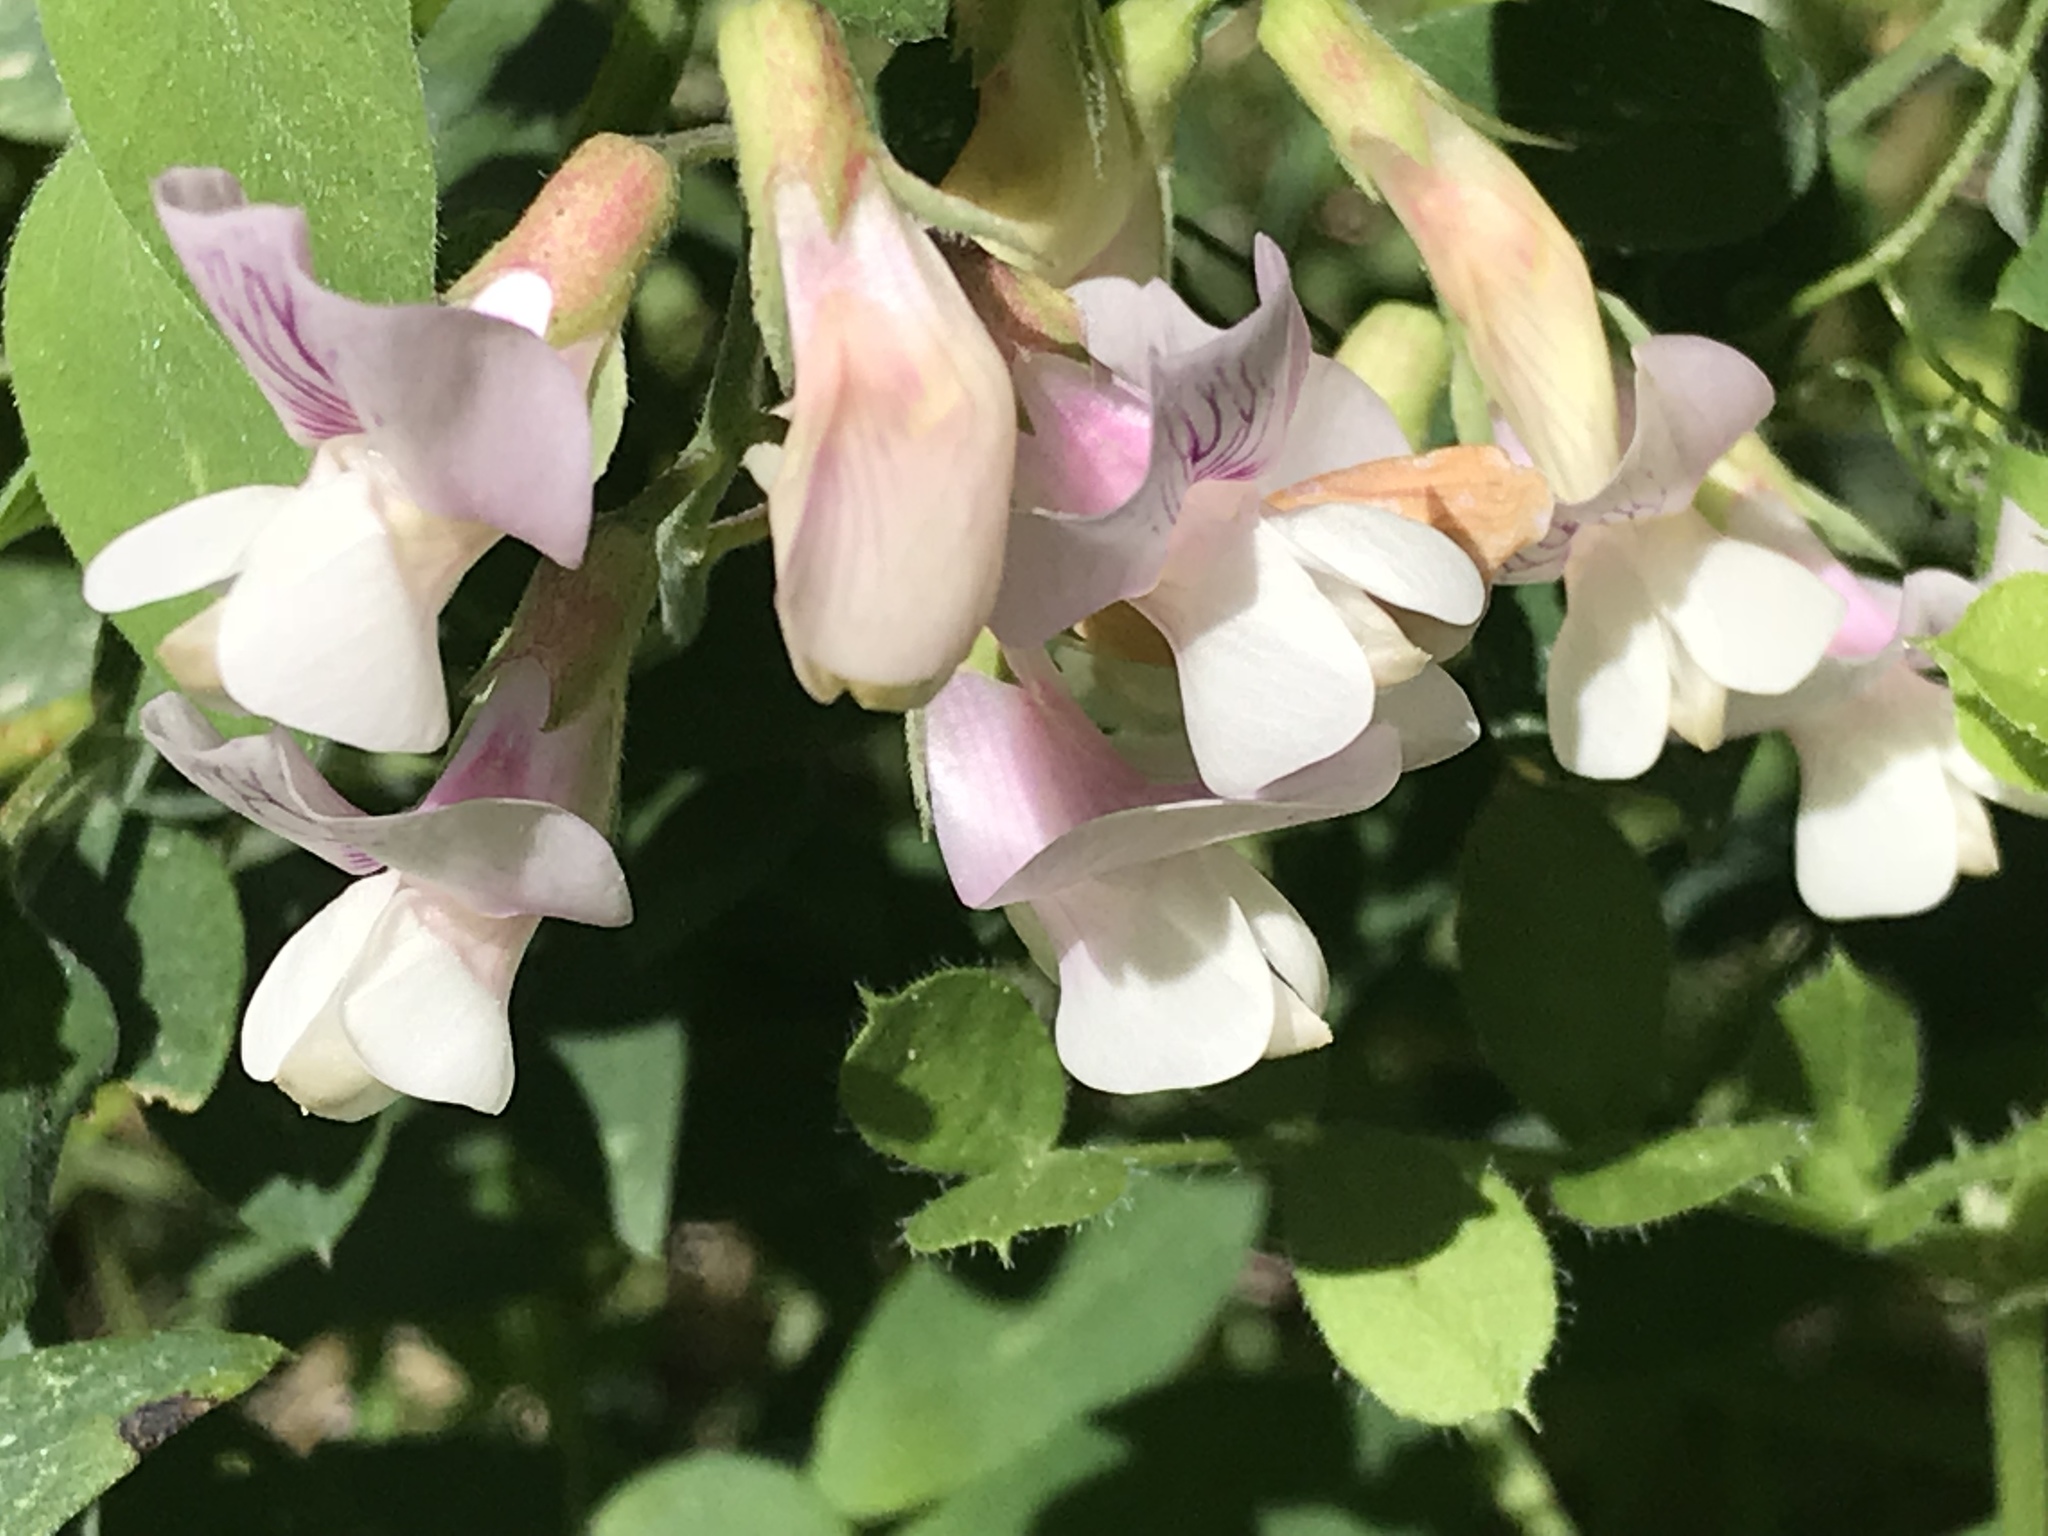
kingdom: Plantae
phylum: Tracheophyta
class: Magnoliopsida
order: Fabales
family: Fabaceae
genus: Lathyrus
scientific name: Lathyrus vestitus
